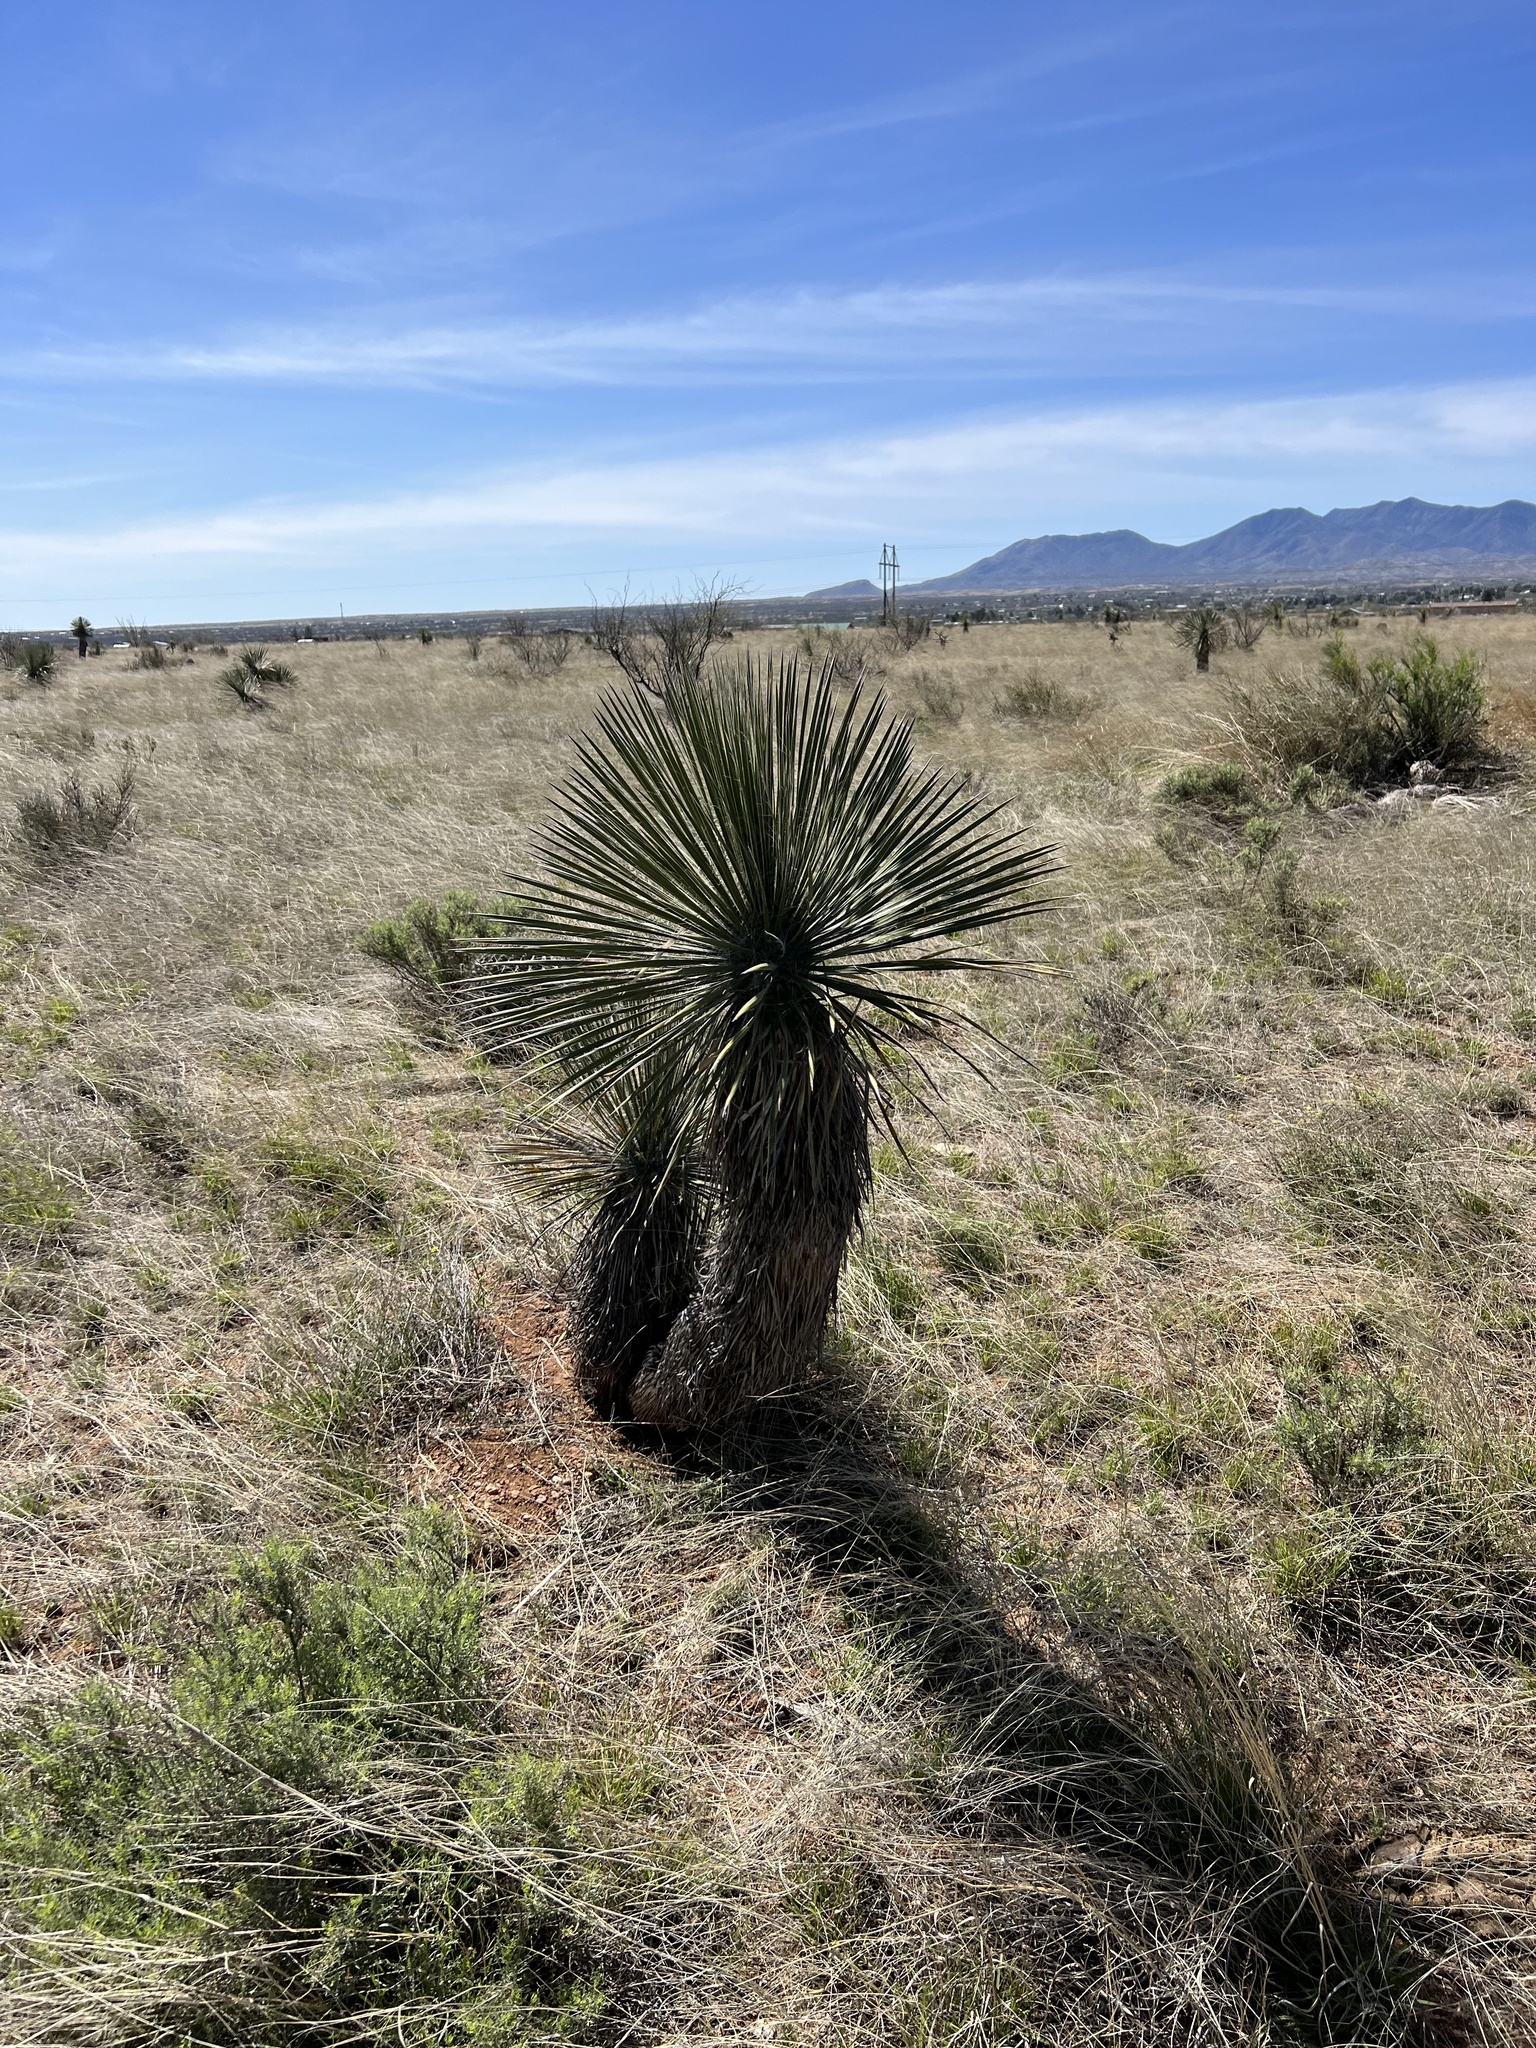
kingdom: Plantae
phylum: Tracheophyta
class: Liliopsida
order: Asparagales
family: Asparagaceae
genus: Yucca
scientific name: Yucca elata
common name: Palmella
